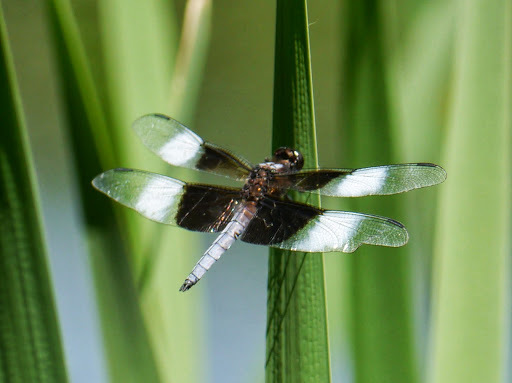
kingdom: Animalia
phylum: Arthropoda
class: Insecta
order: Odonata
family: Libellulidae
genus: Libellula
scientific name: Libellula luctuosa
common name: Widow skimmer
